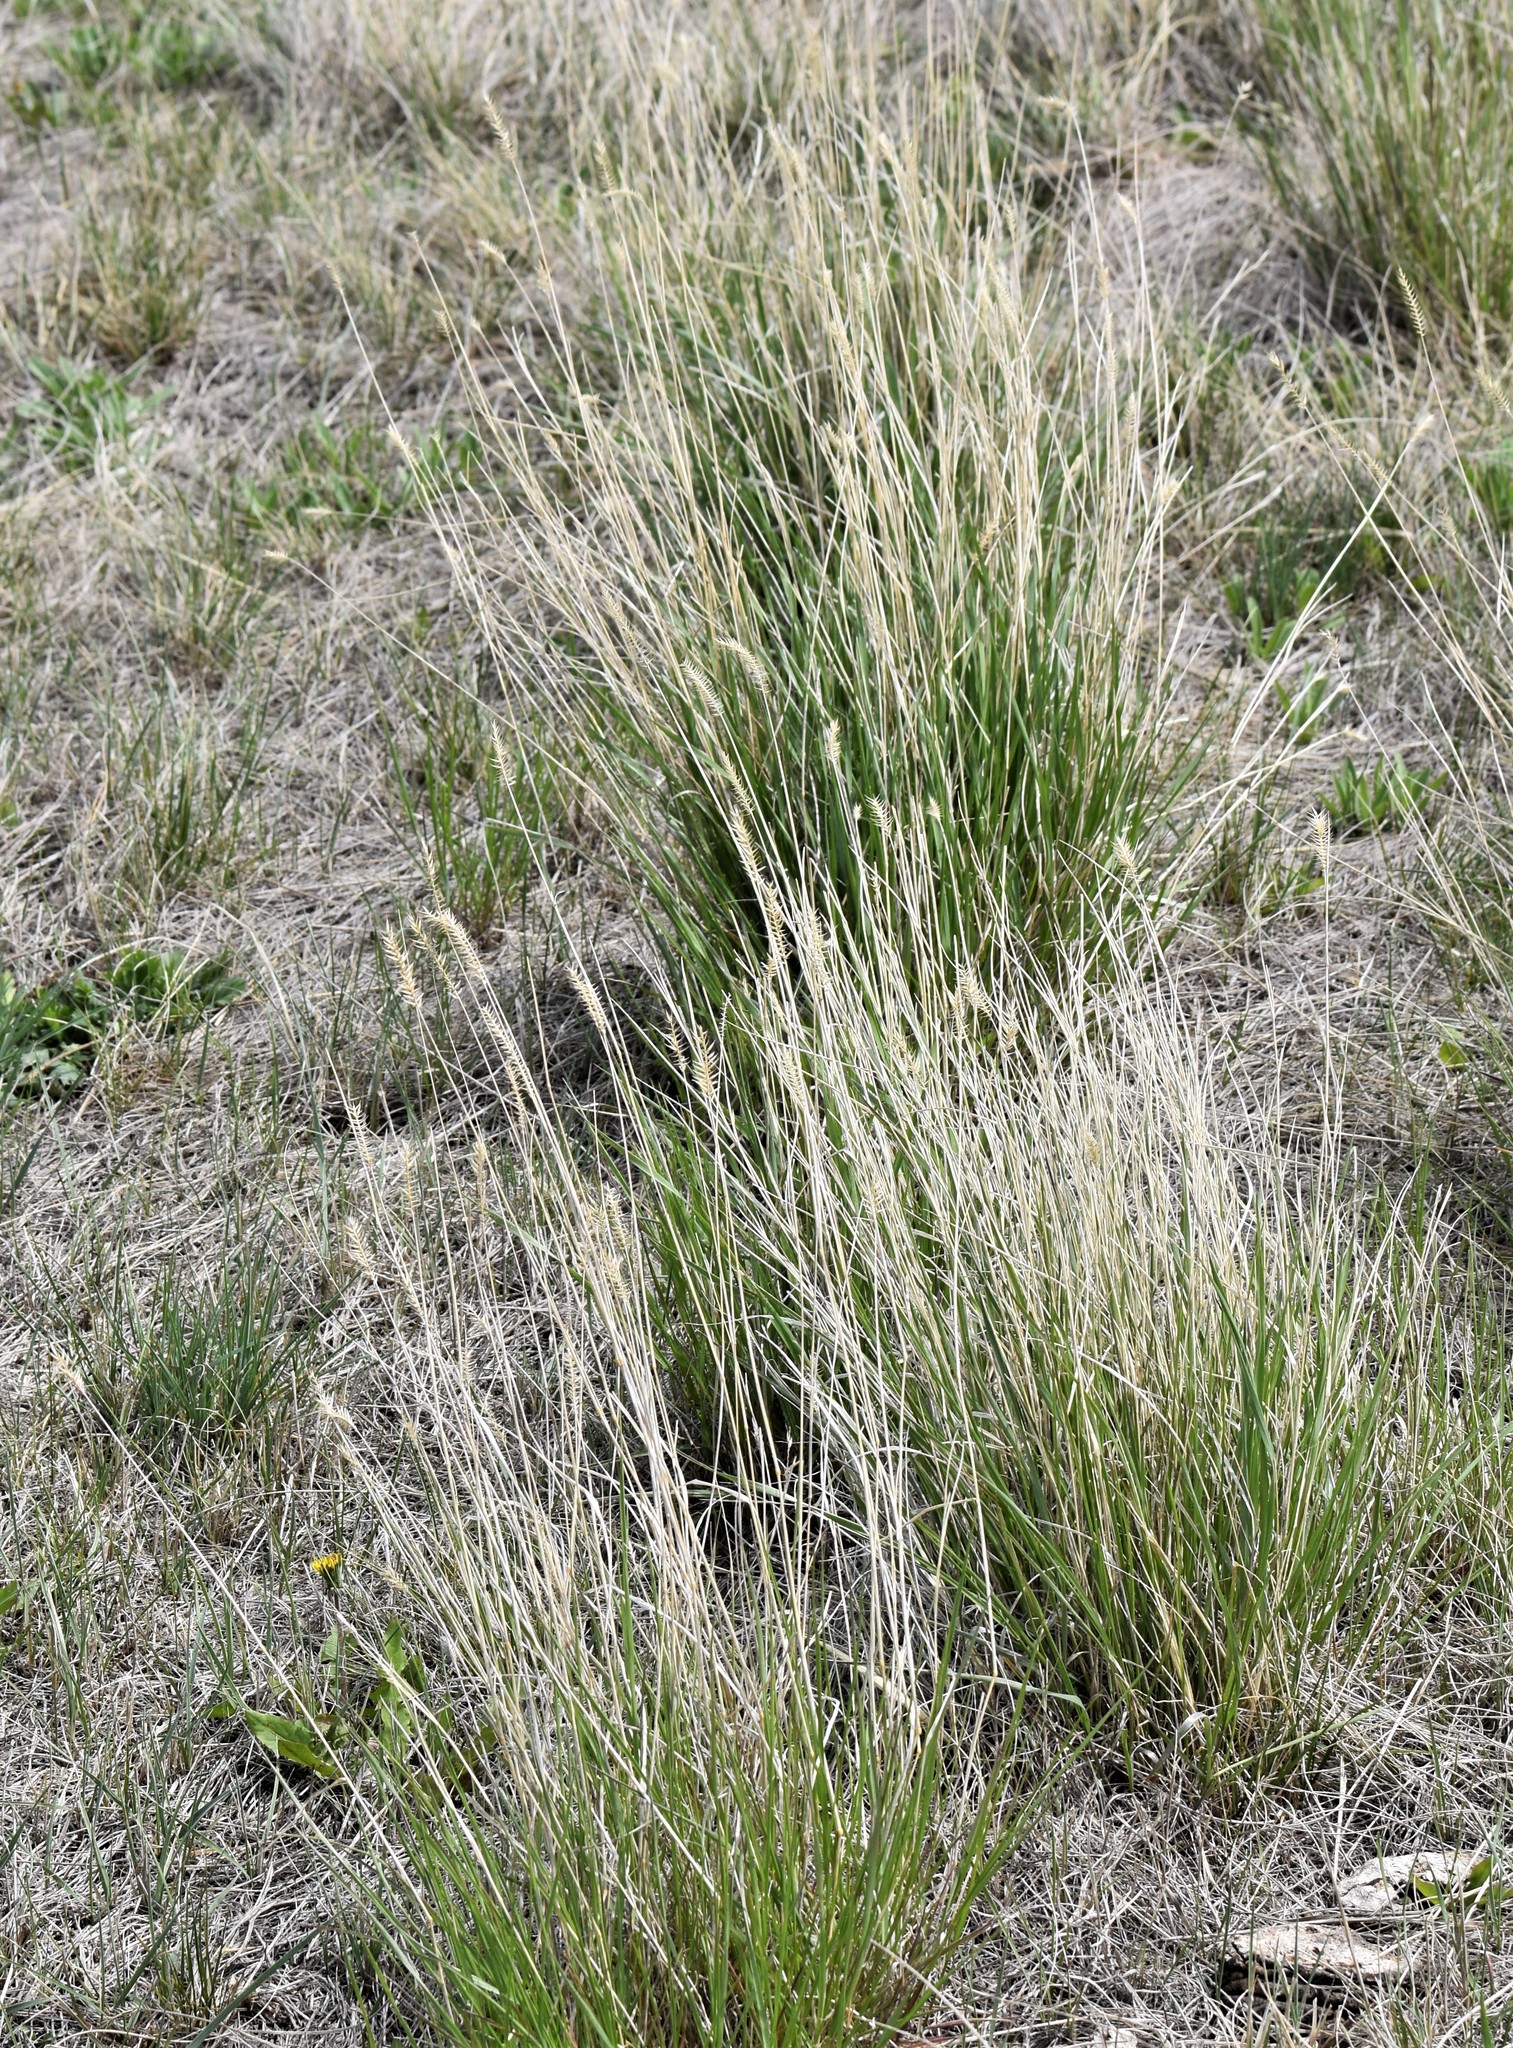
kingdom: Plantae
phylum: Tracheophyta
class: Liliopsida
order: Poales
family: Poaceae
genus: Agropyron
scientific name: Agropyron cristatum
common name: Crested wheatgrass
